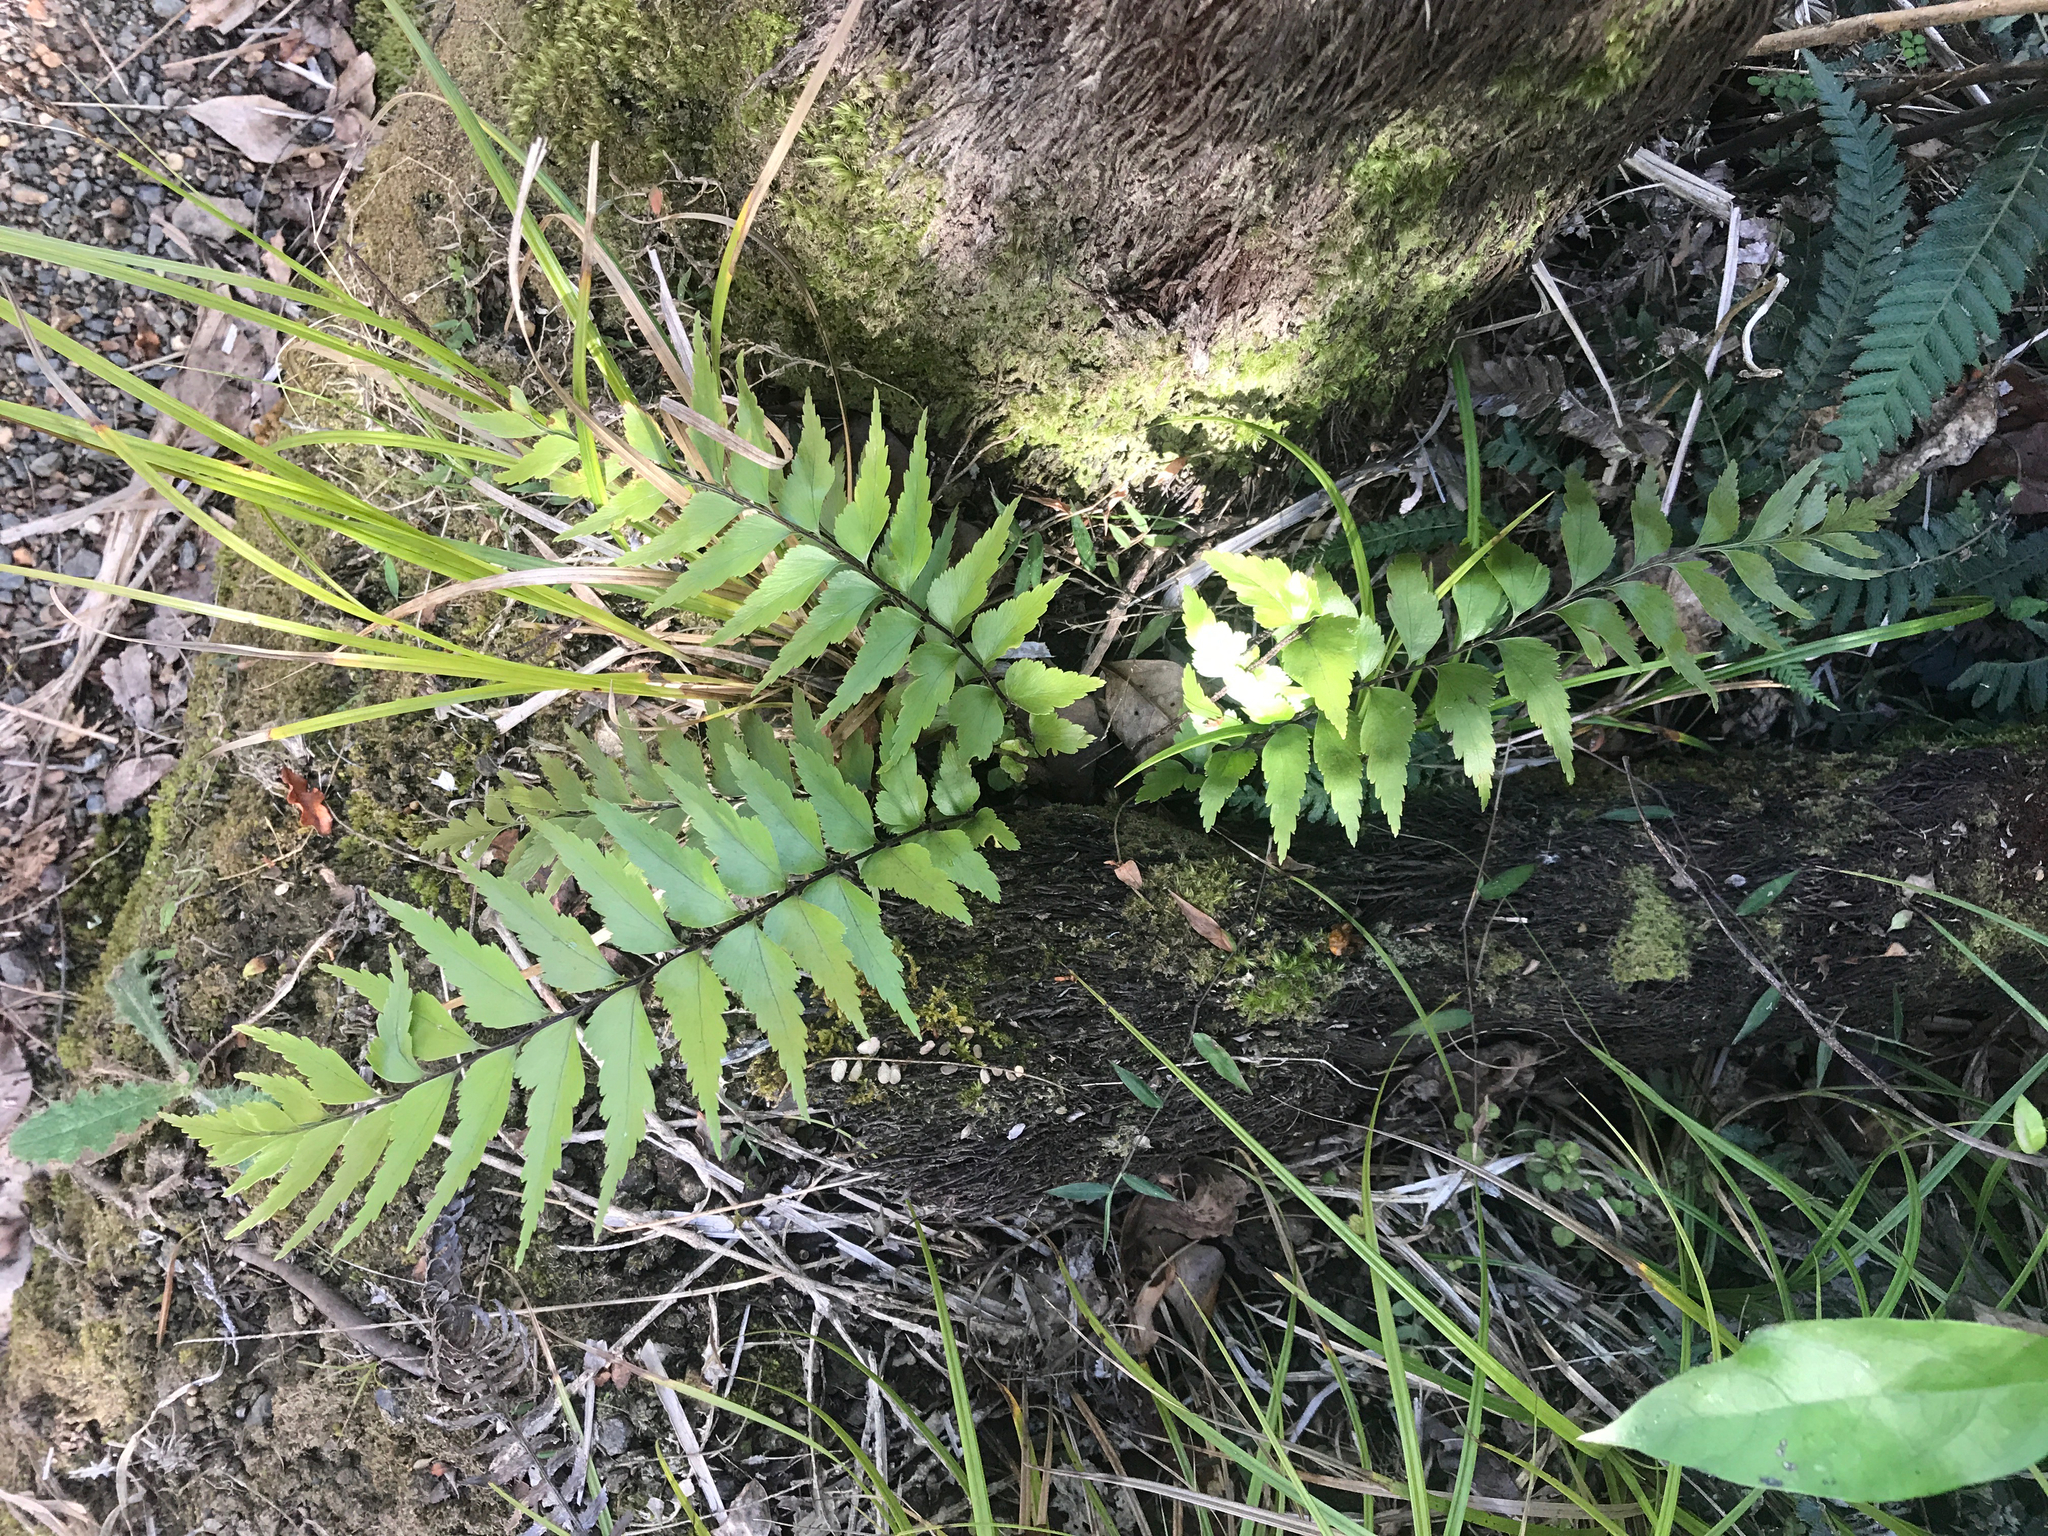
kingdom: Plantae
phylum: Tracheophyta
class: Polypodiopsida
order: Polypodiales
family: Aspleniaceae
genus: Asplenium
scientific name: Asplenium polyodon
